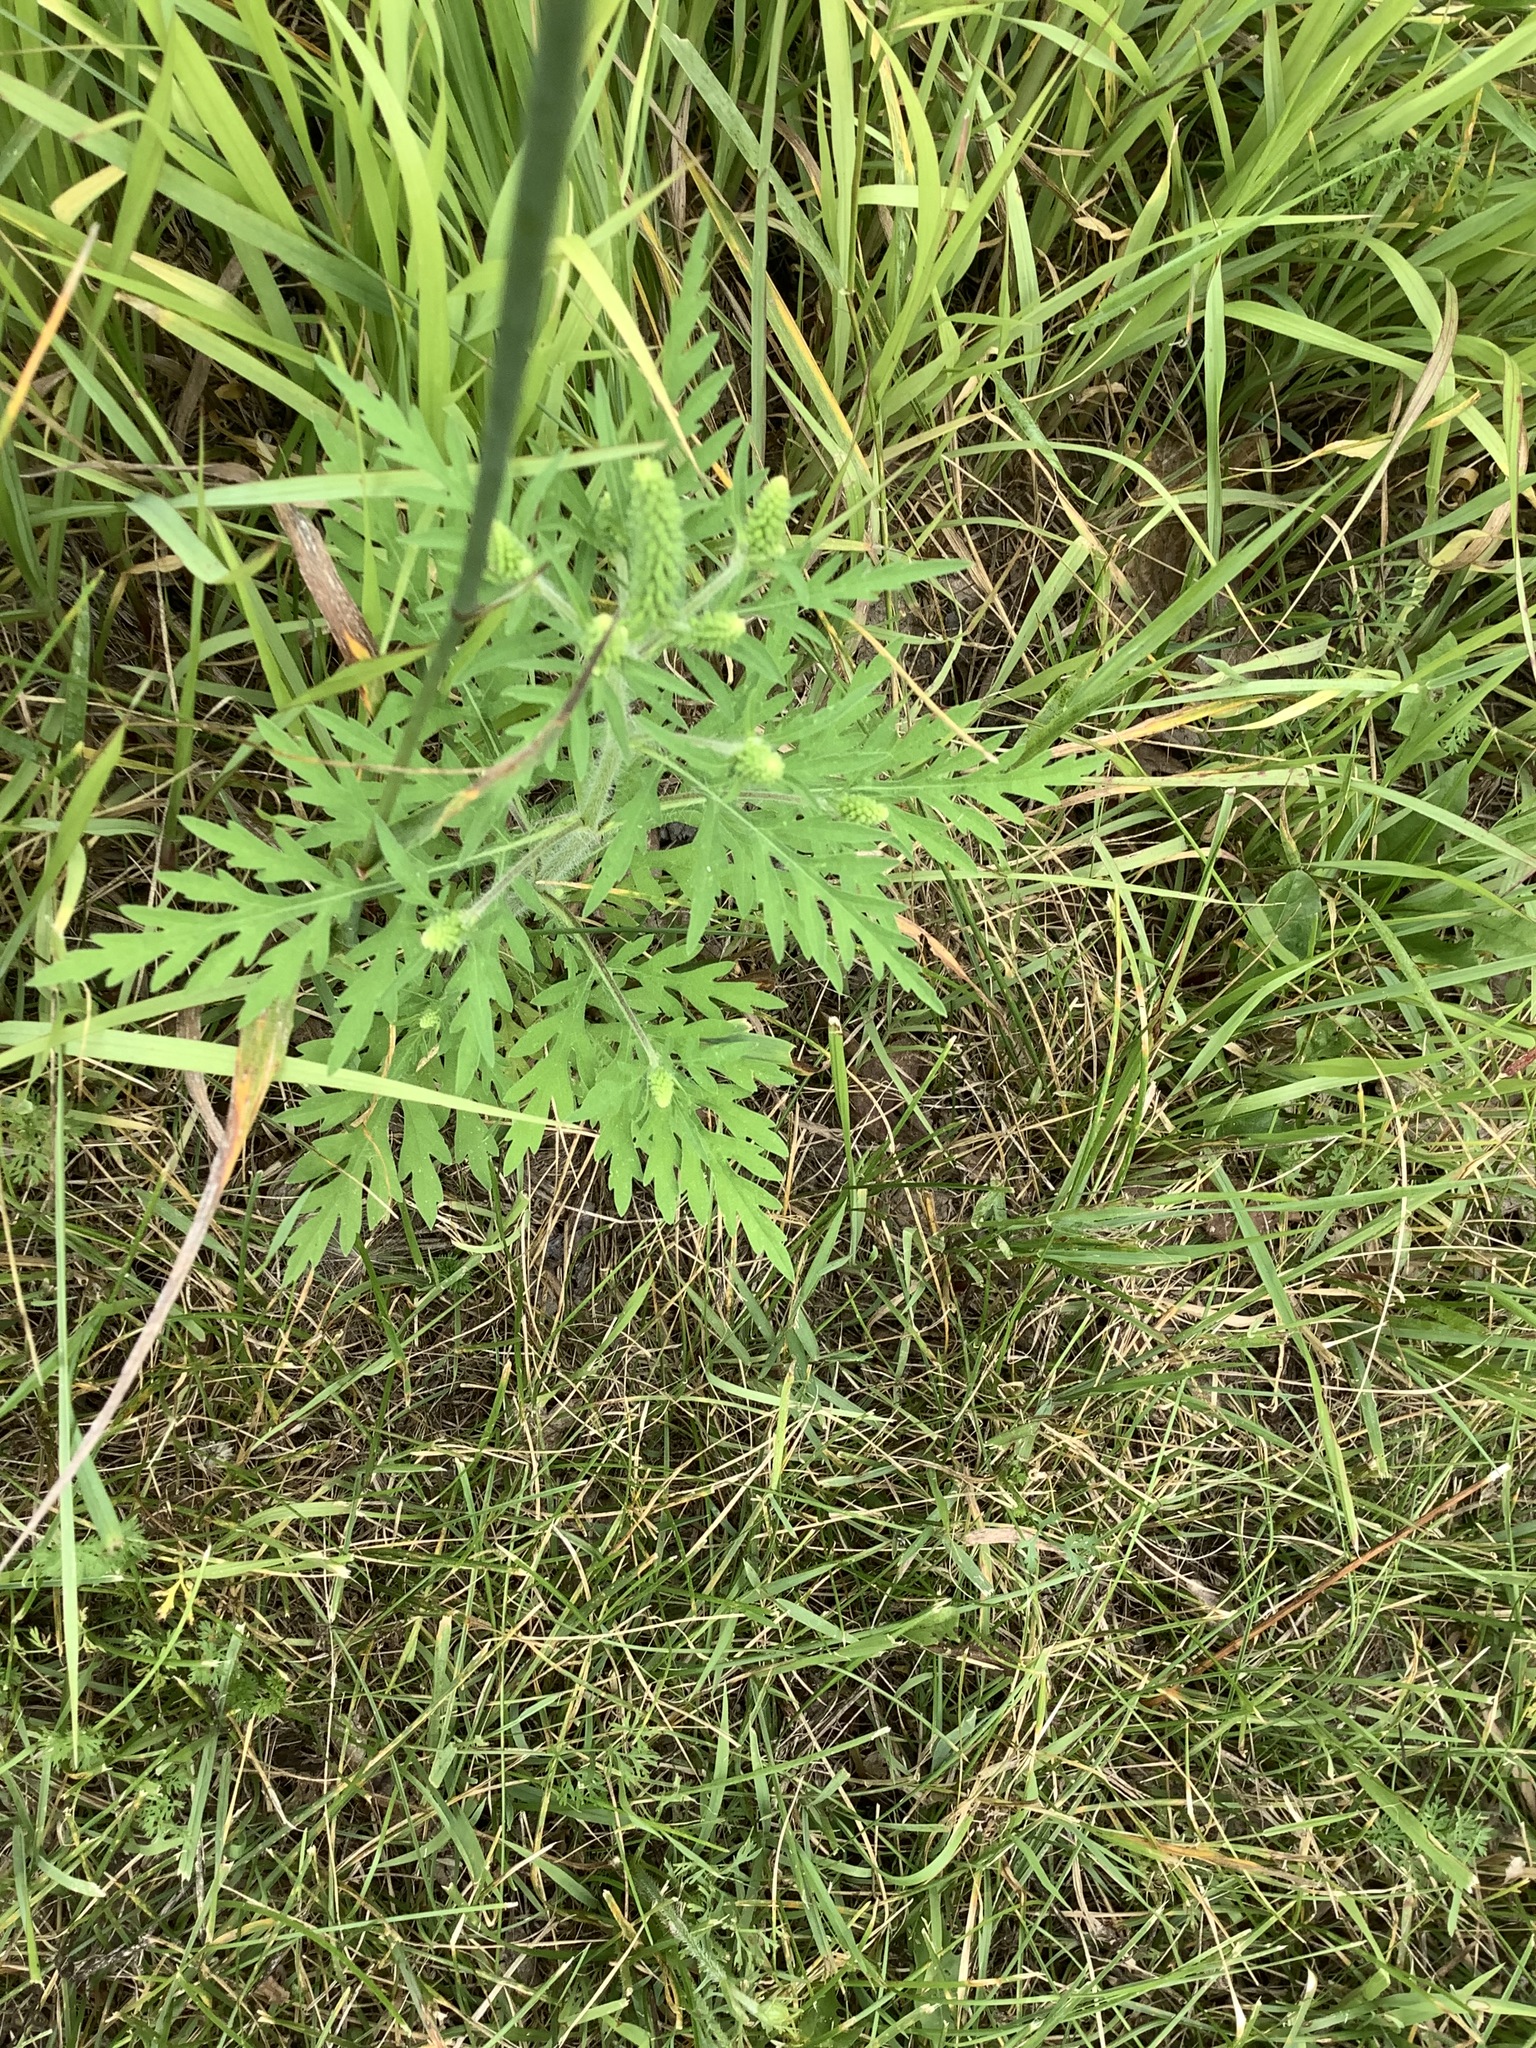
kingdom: Plantae
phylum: Tracheophyta
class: Magnoliopsida
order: Asterales
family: Asteraceae
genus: Ambrosia
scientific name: Ambrosia artemisiifolia
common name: Annual ragweed
